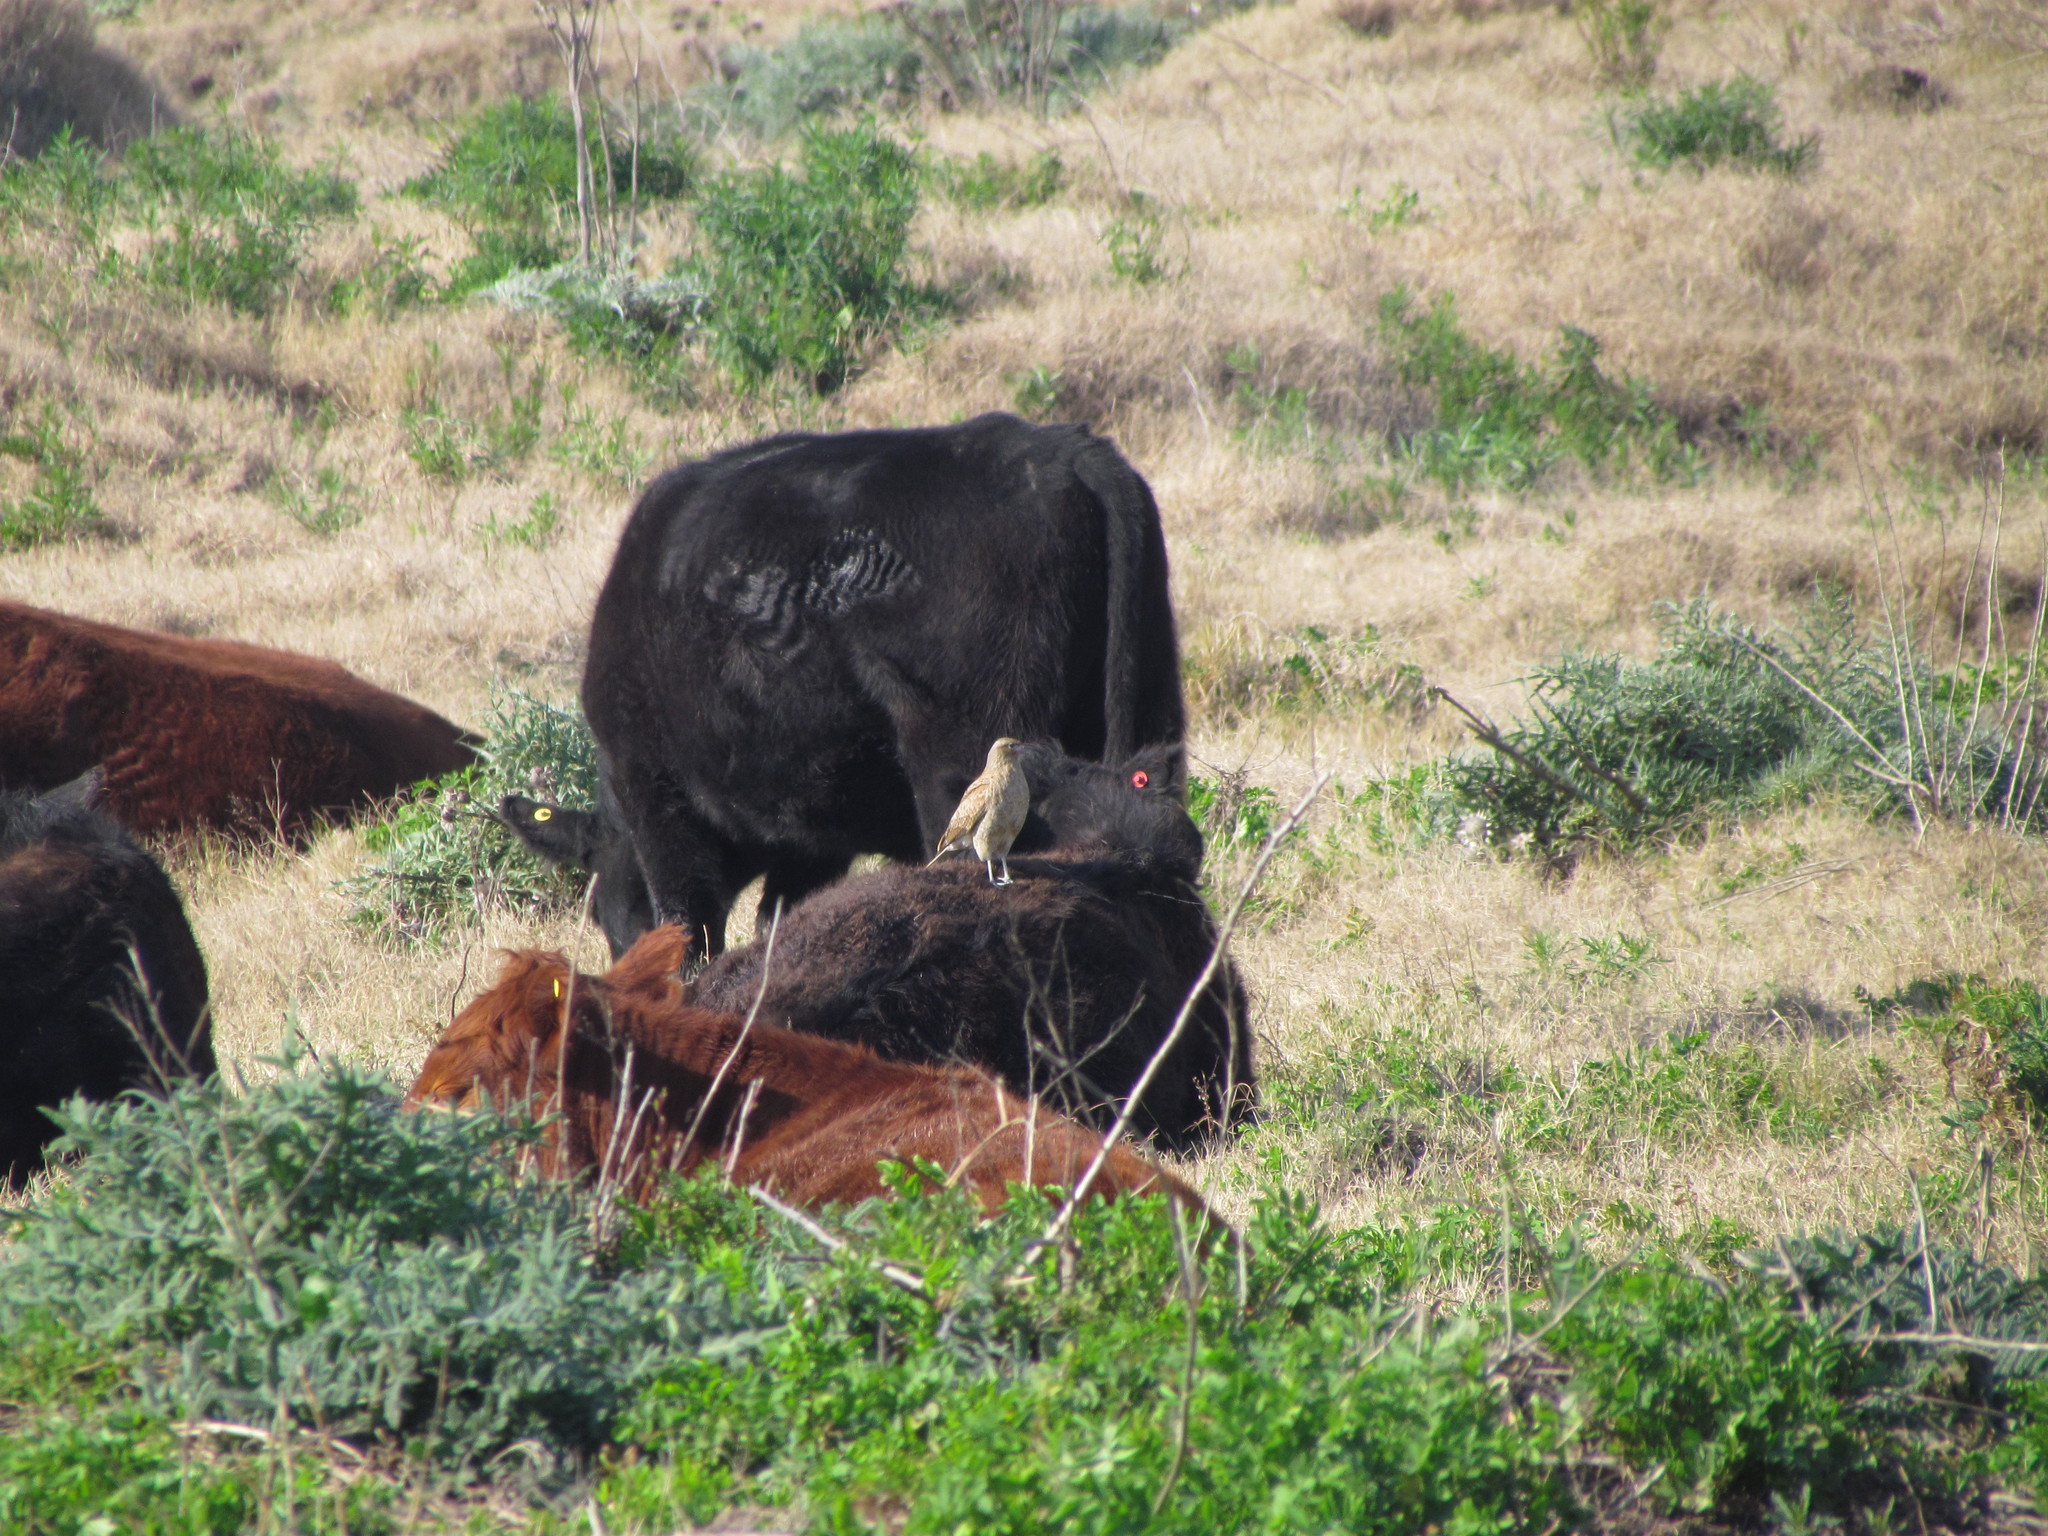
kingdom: Animalia
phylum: Chordata
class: Aves
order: Falconiformes
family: Falconidae
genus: Daptrius
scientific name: Daptrius
